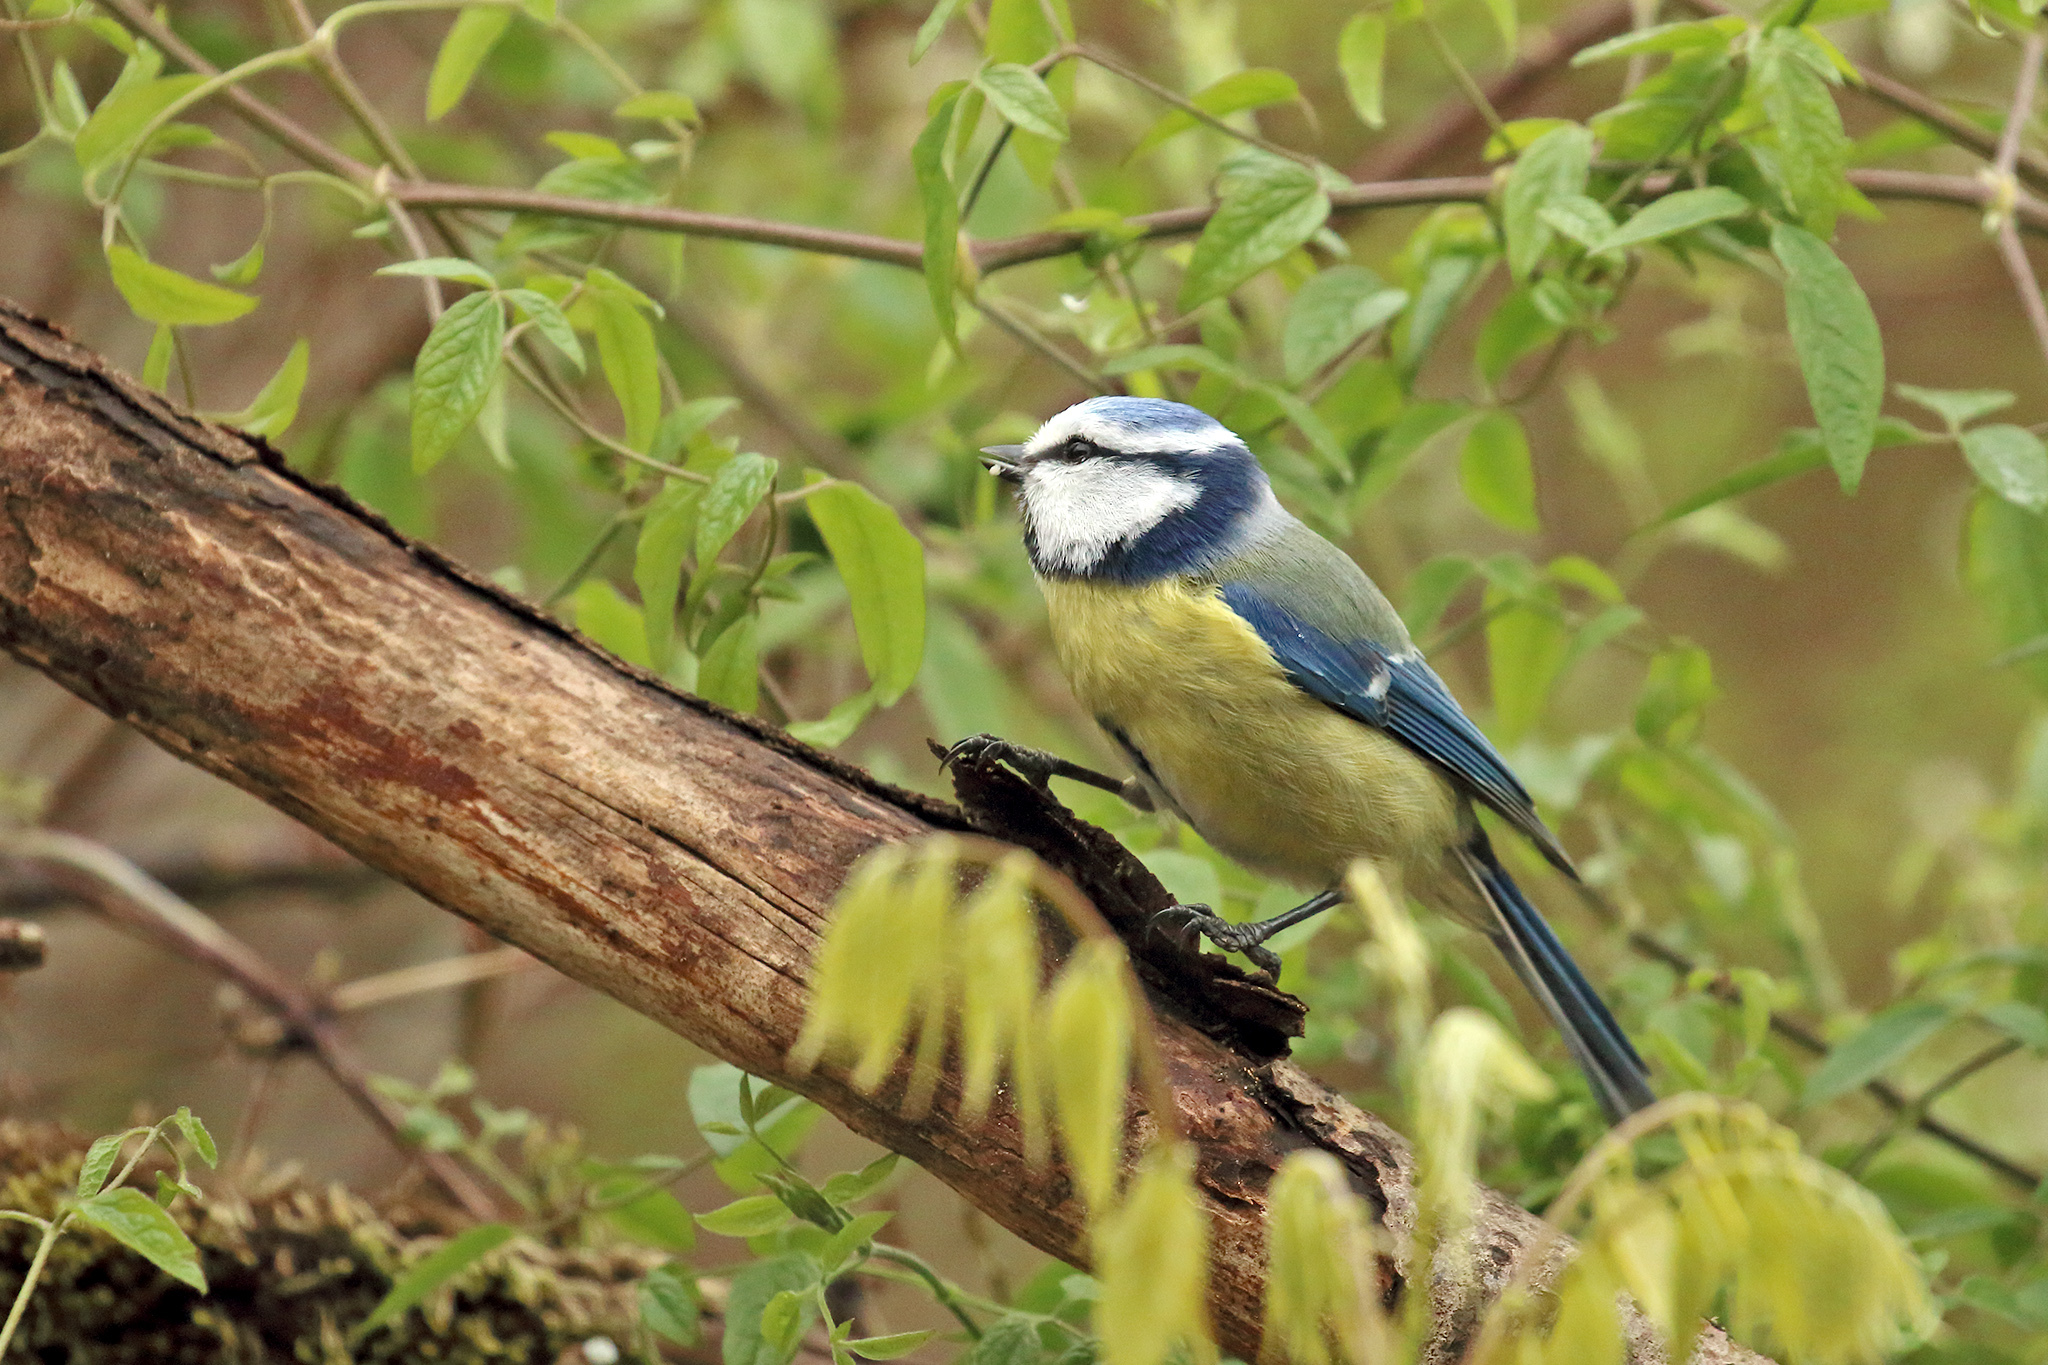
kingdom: Animalia
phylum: Chordata
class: Aves
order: Passeriformes
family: Paridae
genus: Cyanistes
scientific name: Cyanistes caeruleus
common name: Eurasian blue tit
